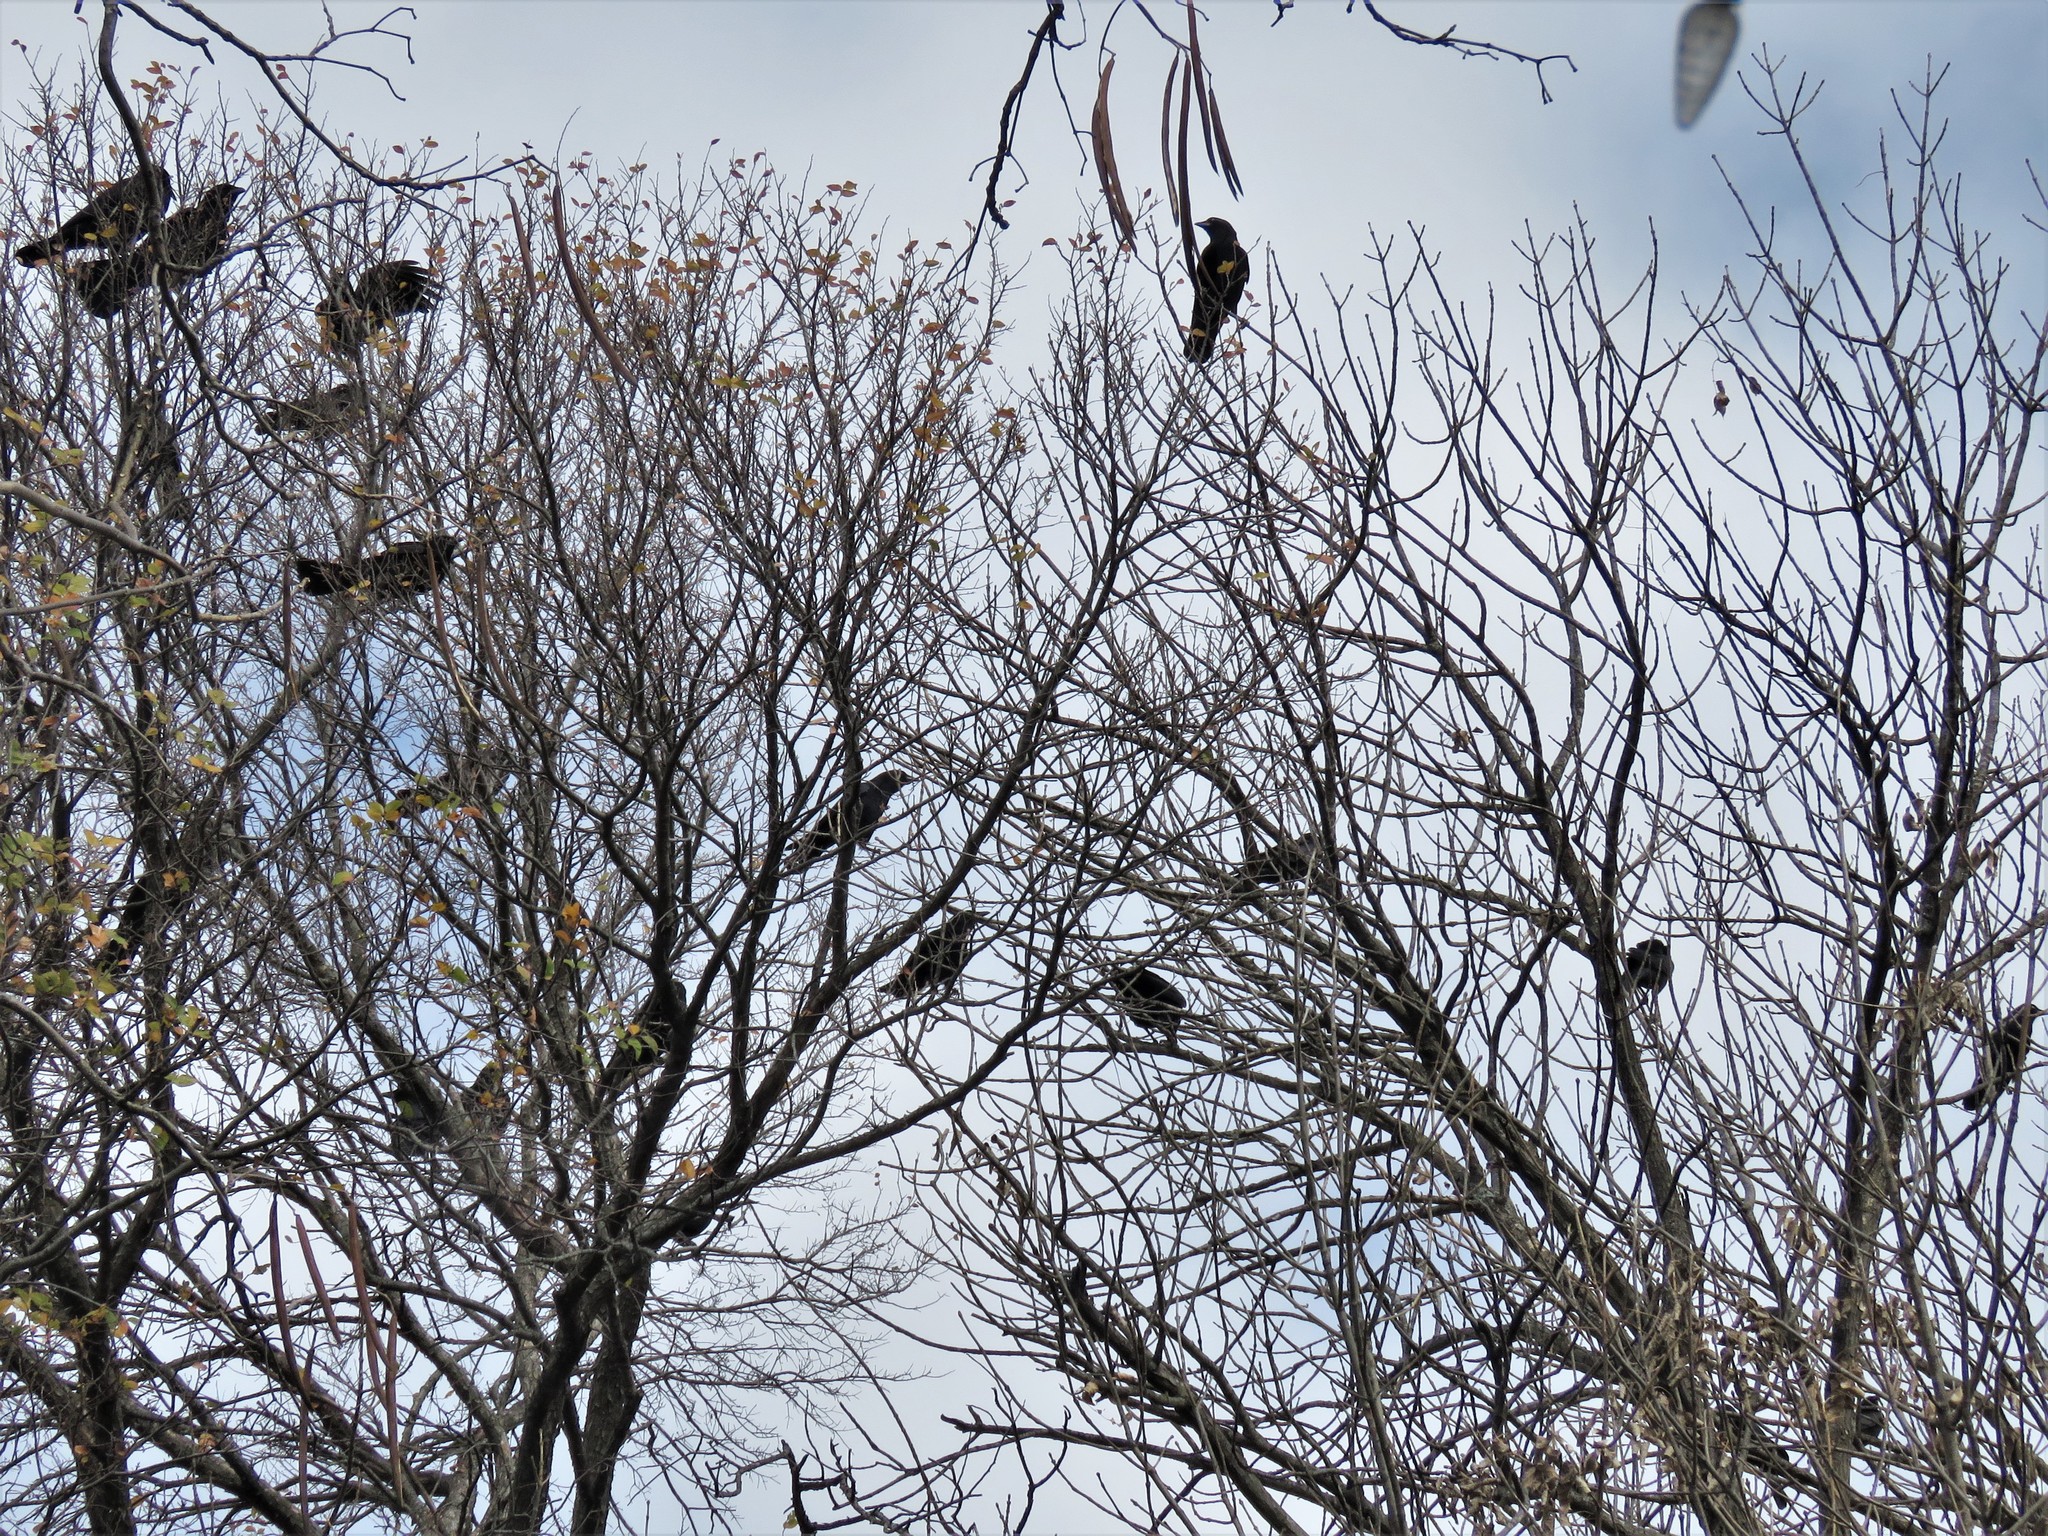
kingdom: Animalia
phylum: Chordata
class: Aves
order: Passeriformes
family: Corvidae
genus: Corvus
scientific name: Corvus brachyrhynchos
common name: American crow
